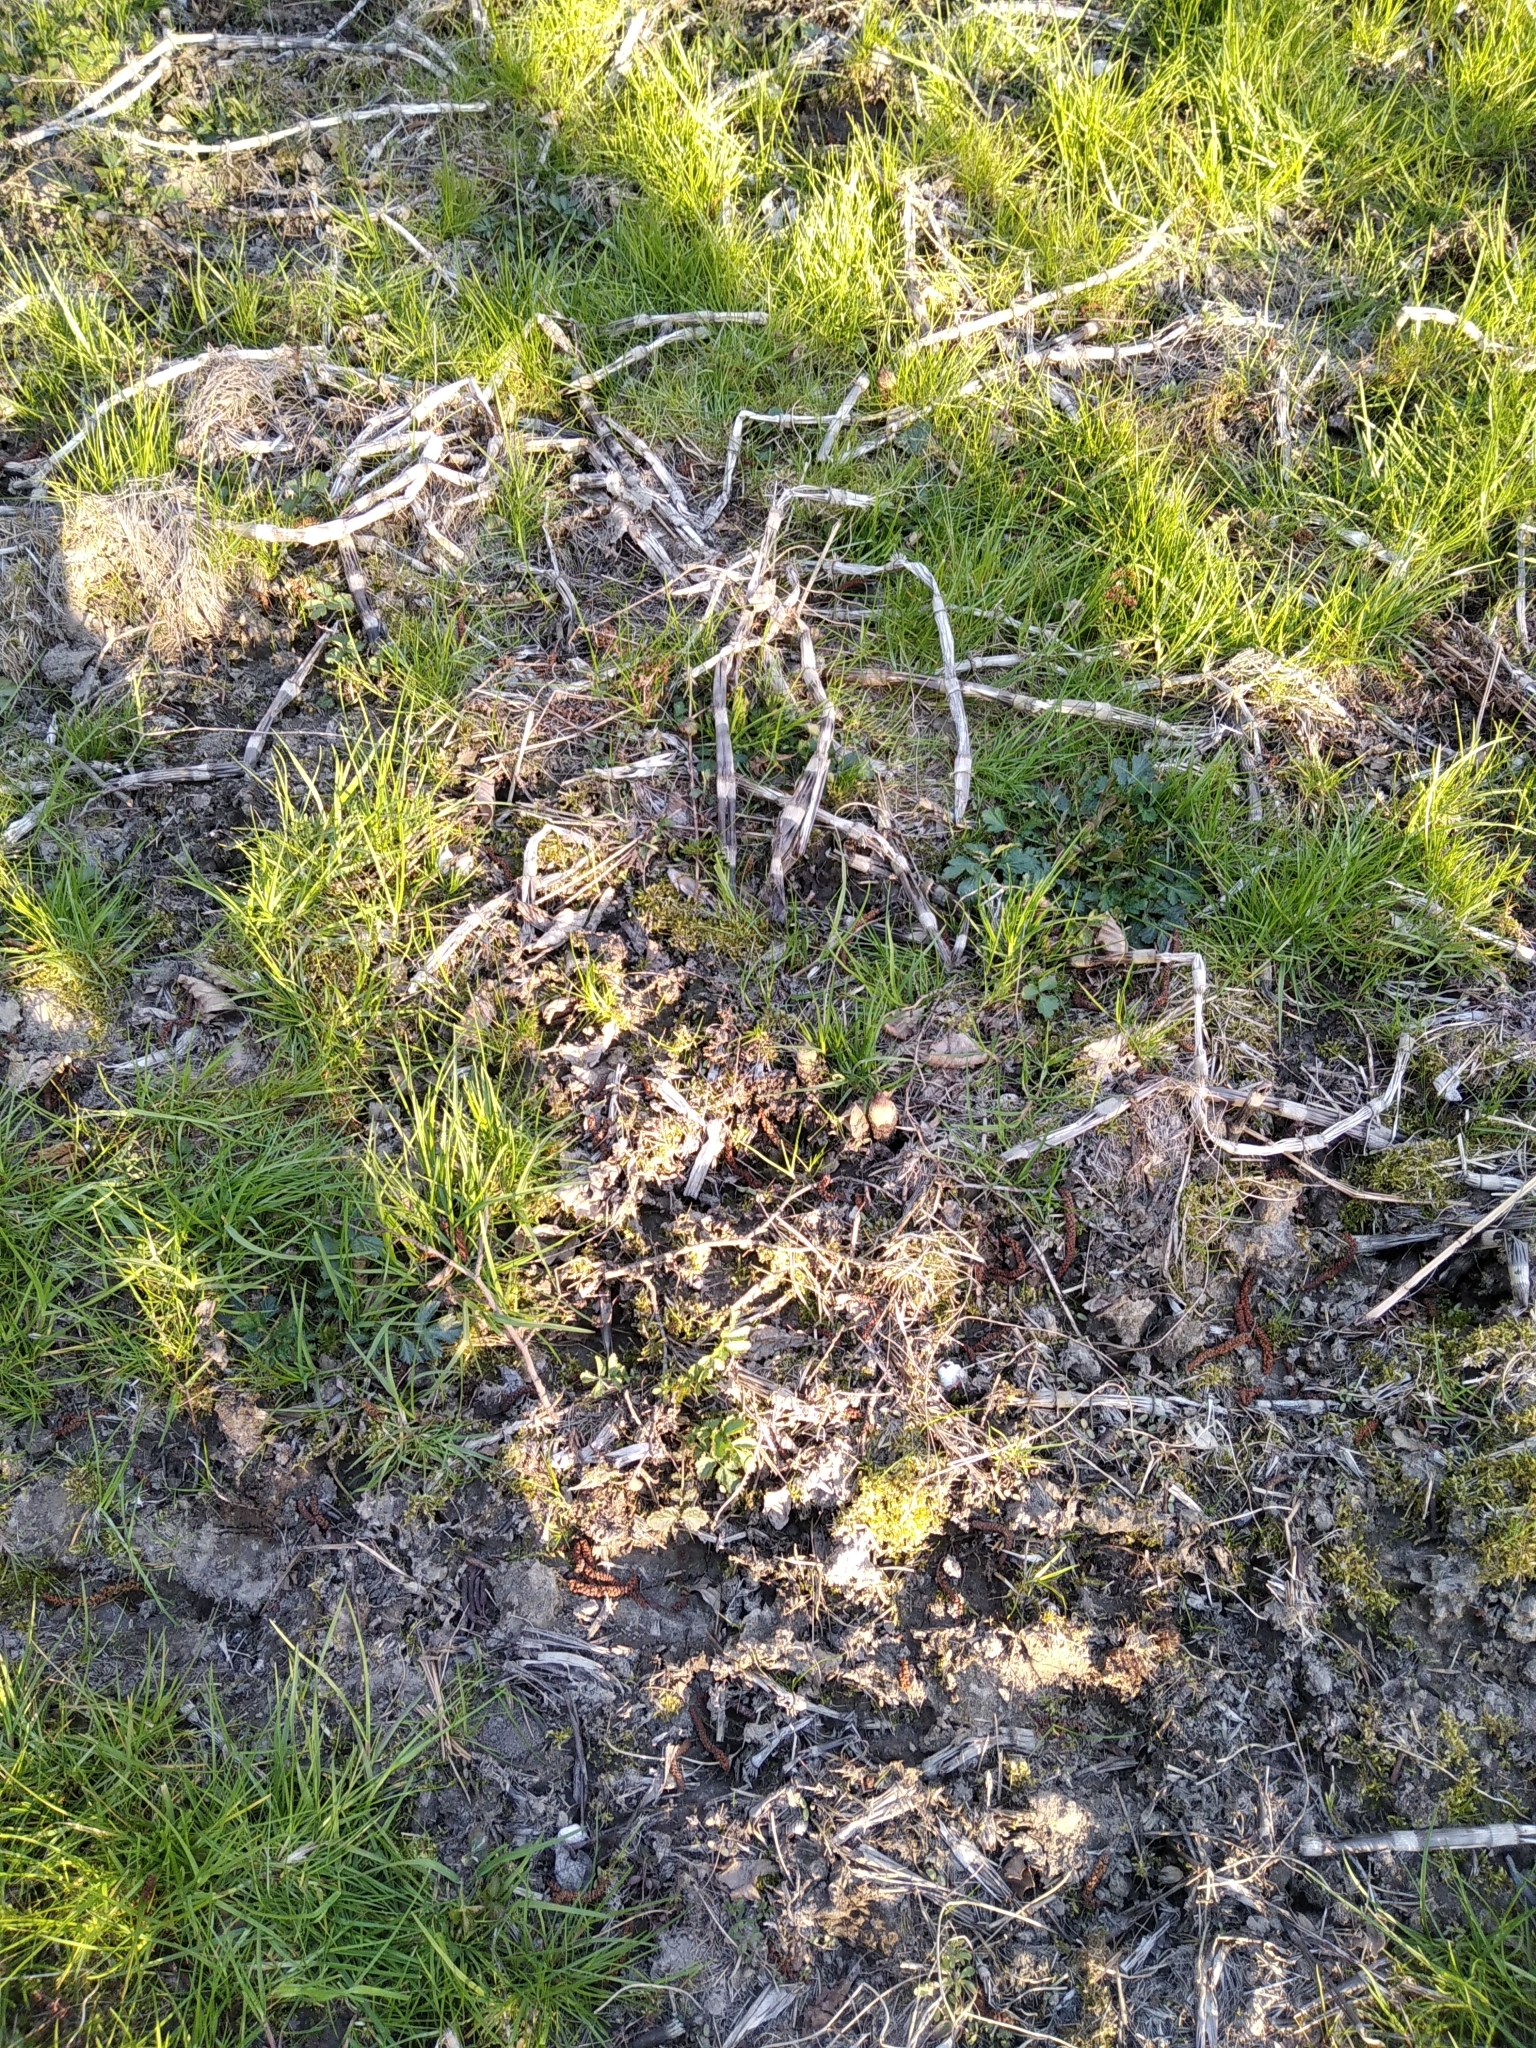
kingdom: Plantae
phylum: Tracheophyta
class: Polypodiopsida
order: Equisetales
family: Equisetaceae
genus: Equisetum
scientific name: Equisetum telmateia
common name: Great horsetail
